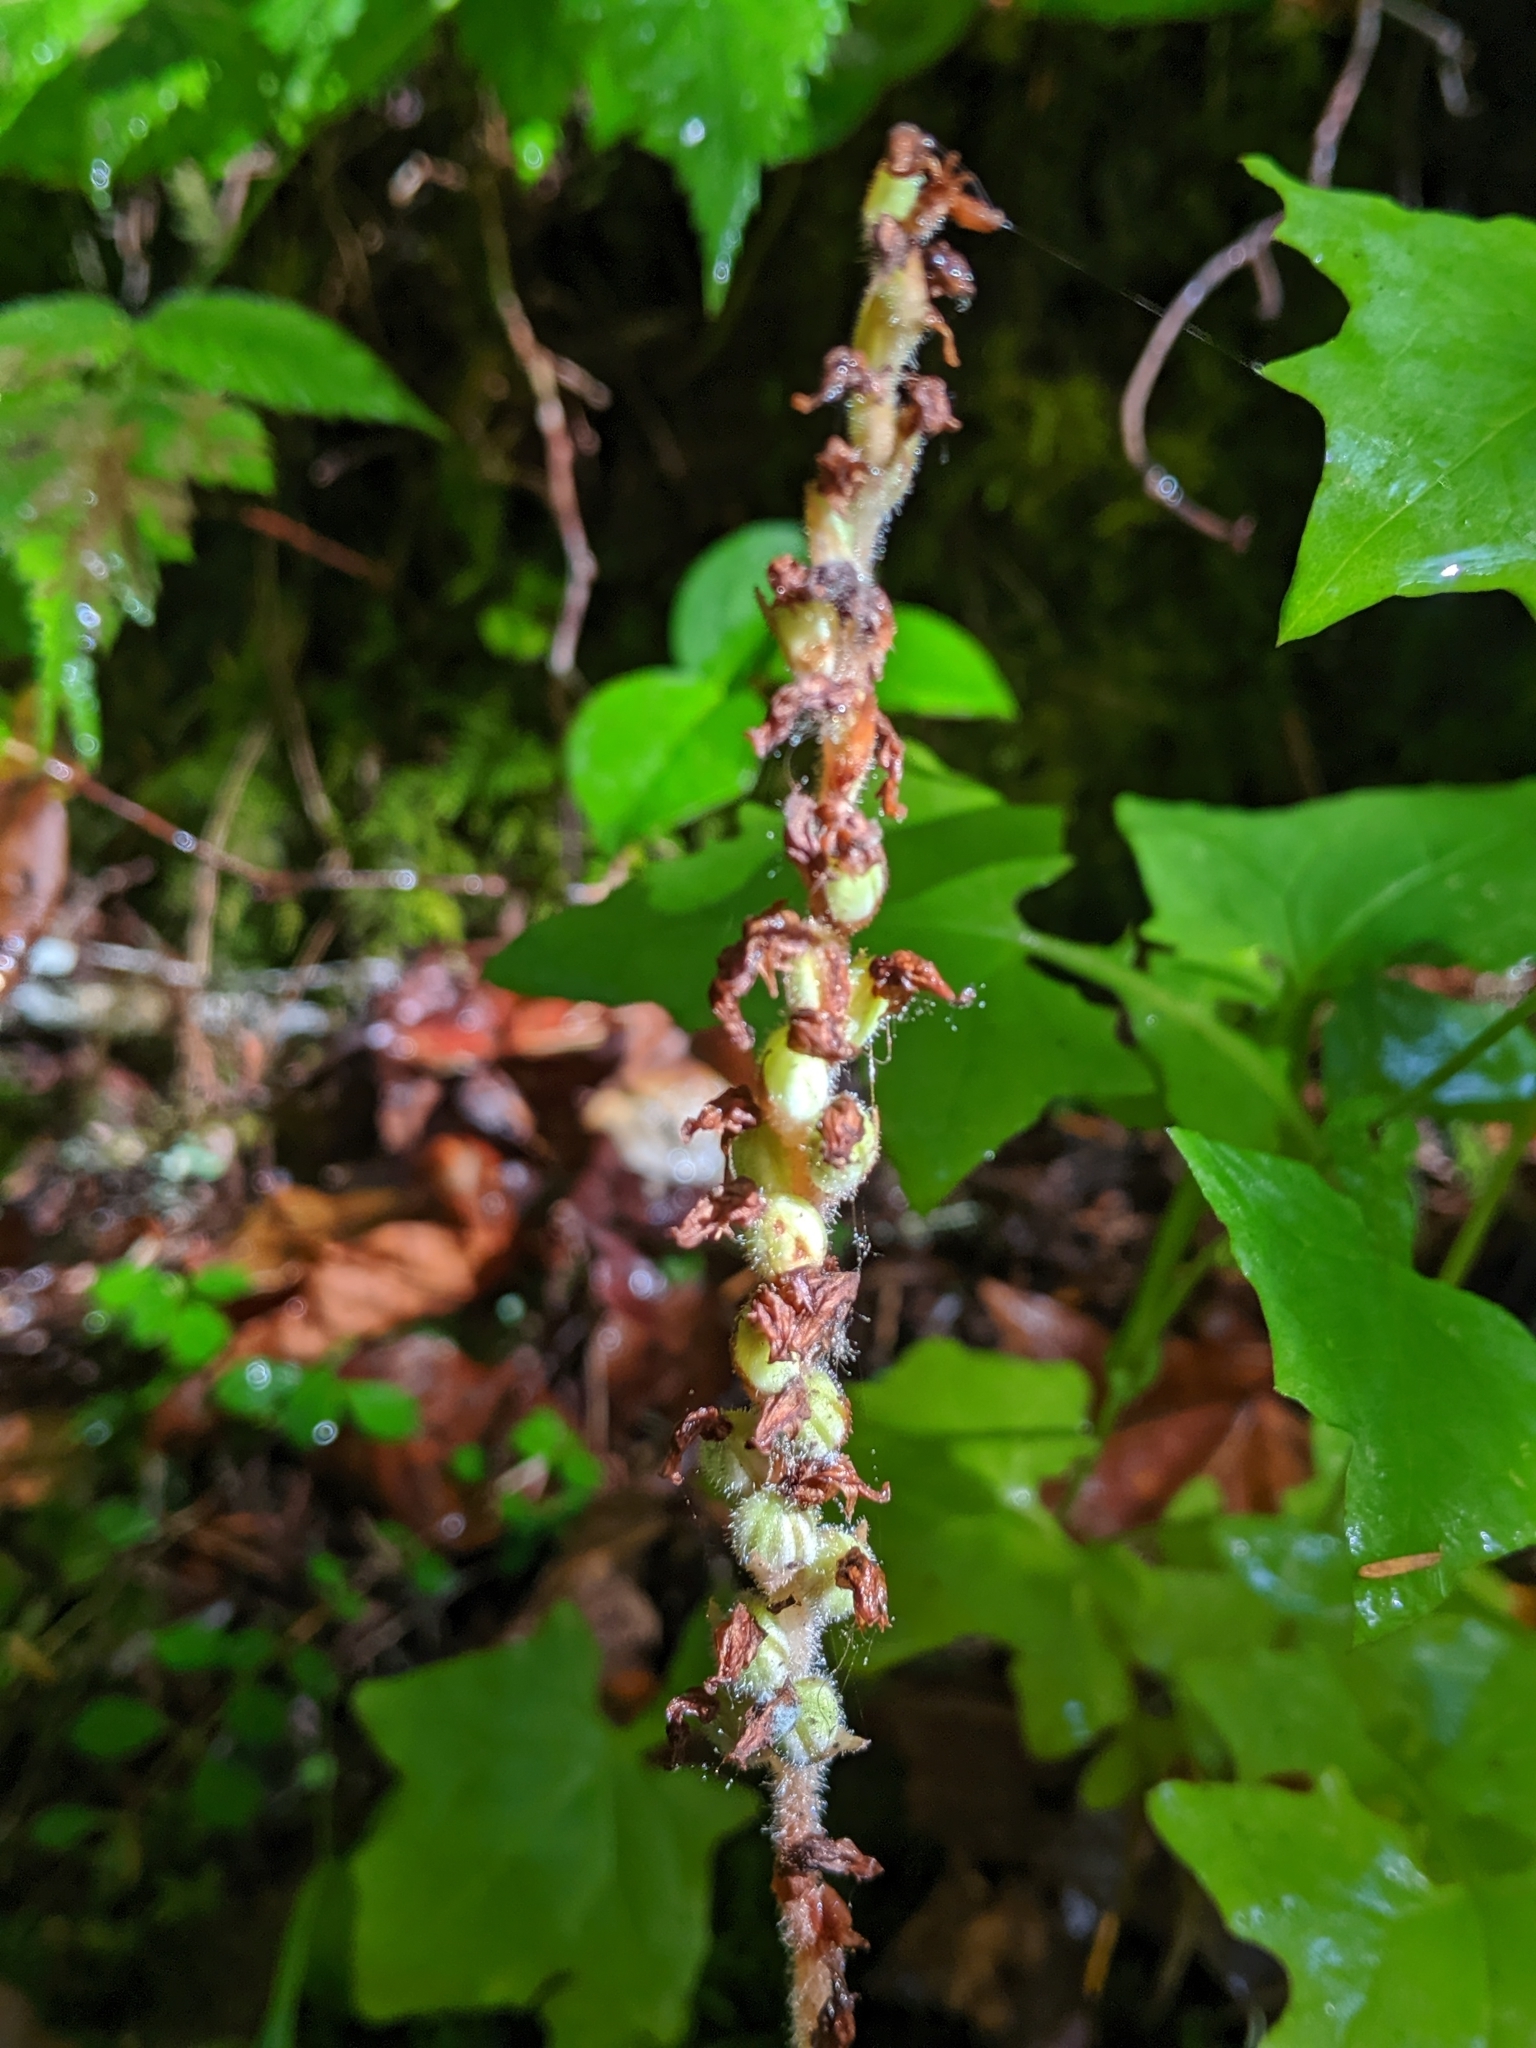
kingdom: Plantae
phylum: Tracheophyta
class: Liliopsida
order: Asparagales
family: Orchidaceae
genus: Goodyera
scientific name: Goodyera oblongifolia
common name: Giant rattlesnake-plantain
